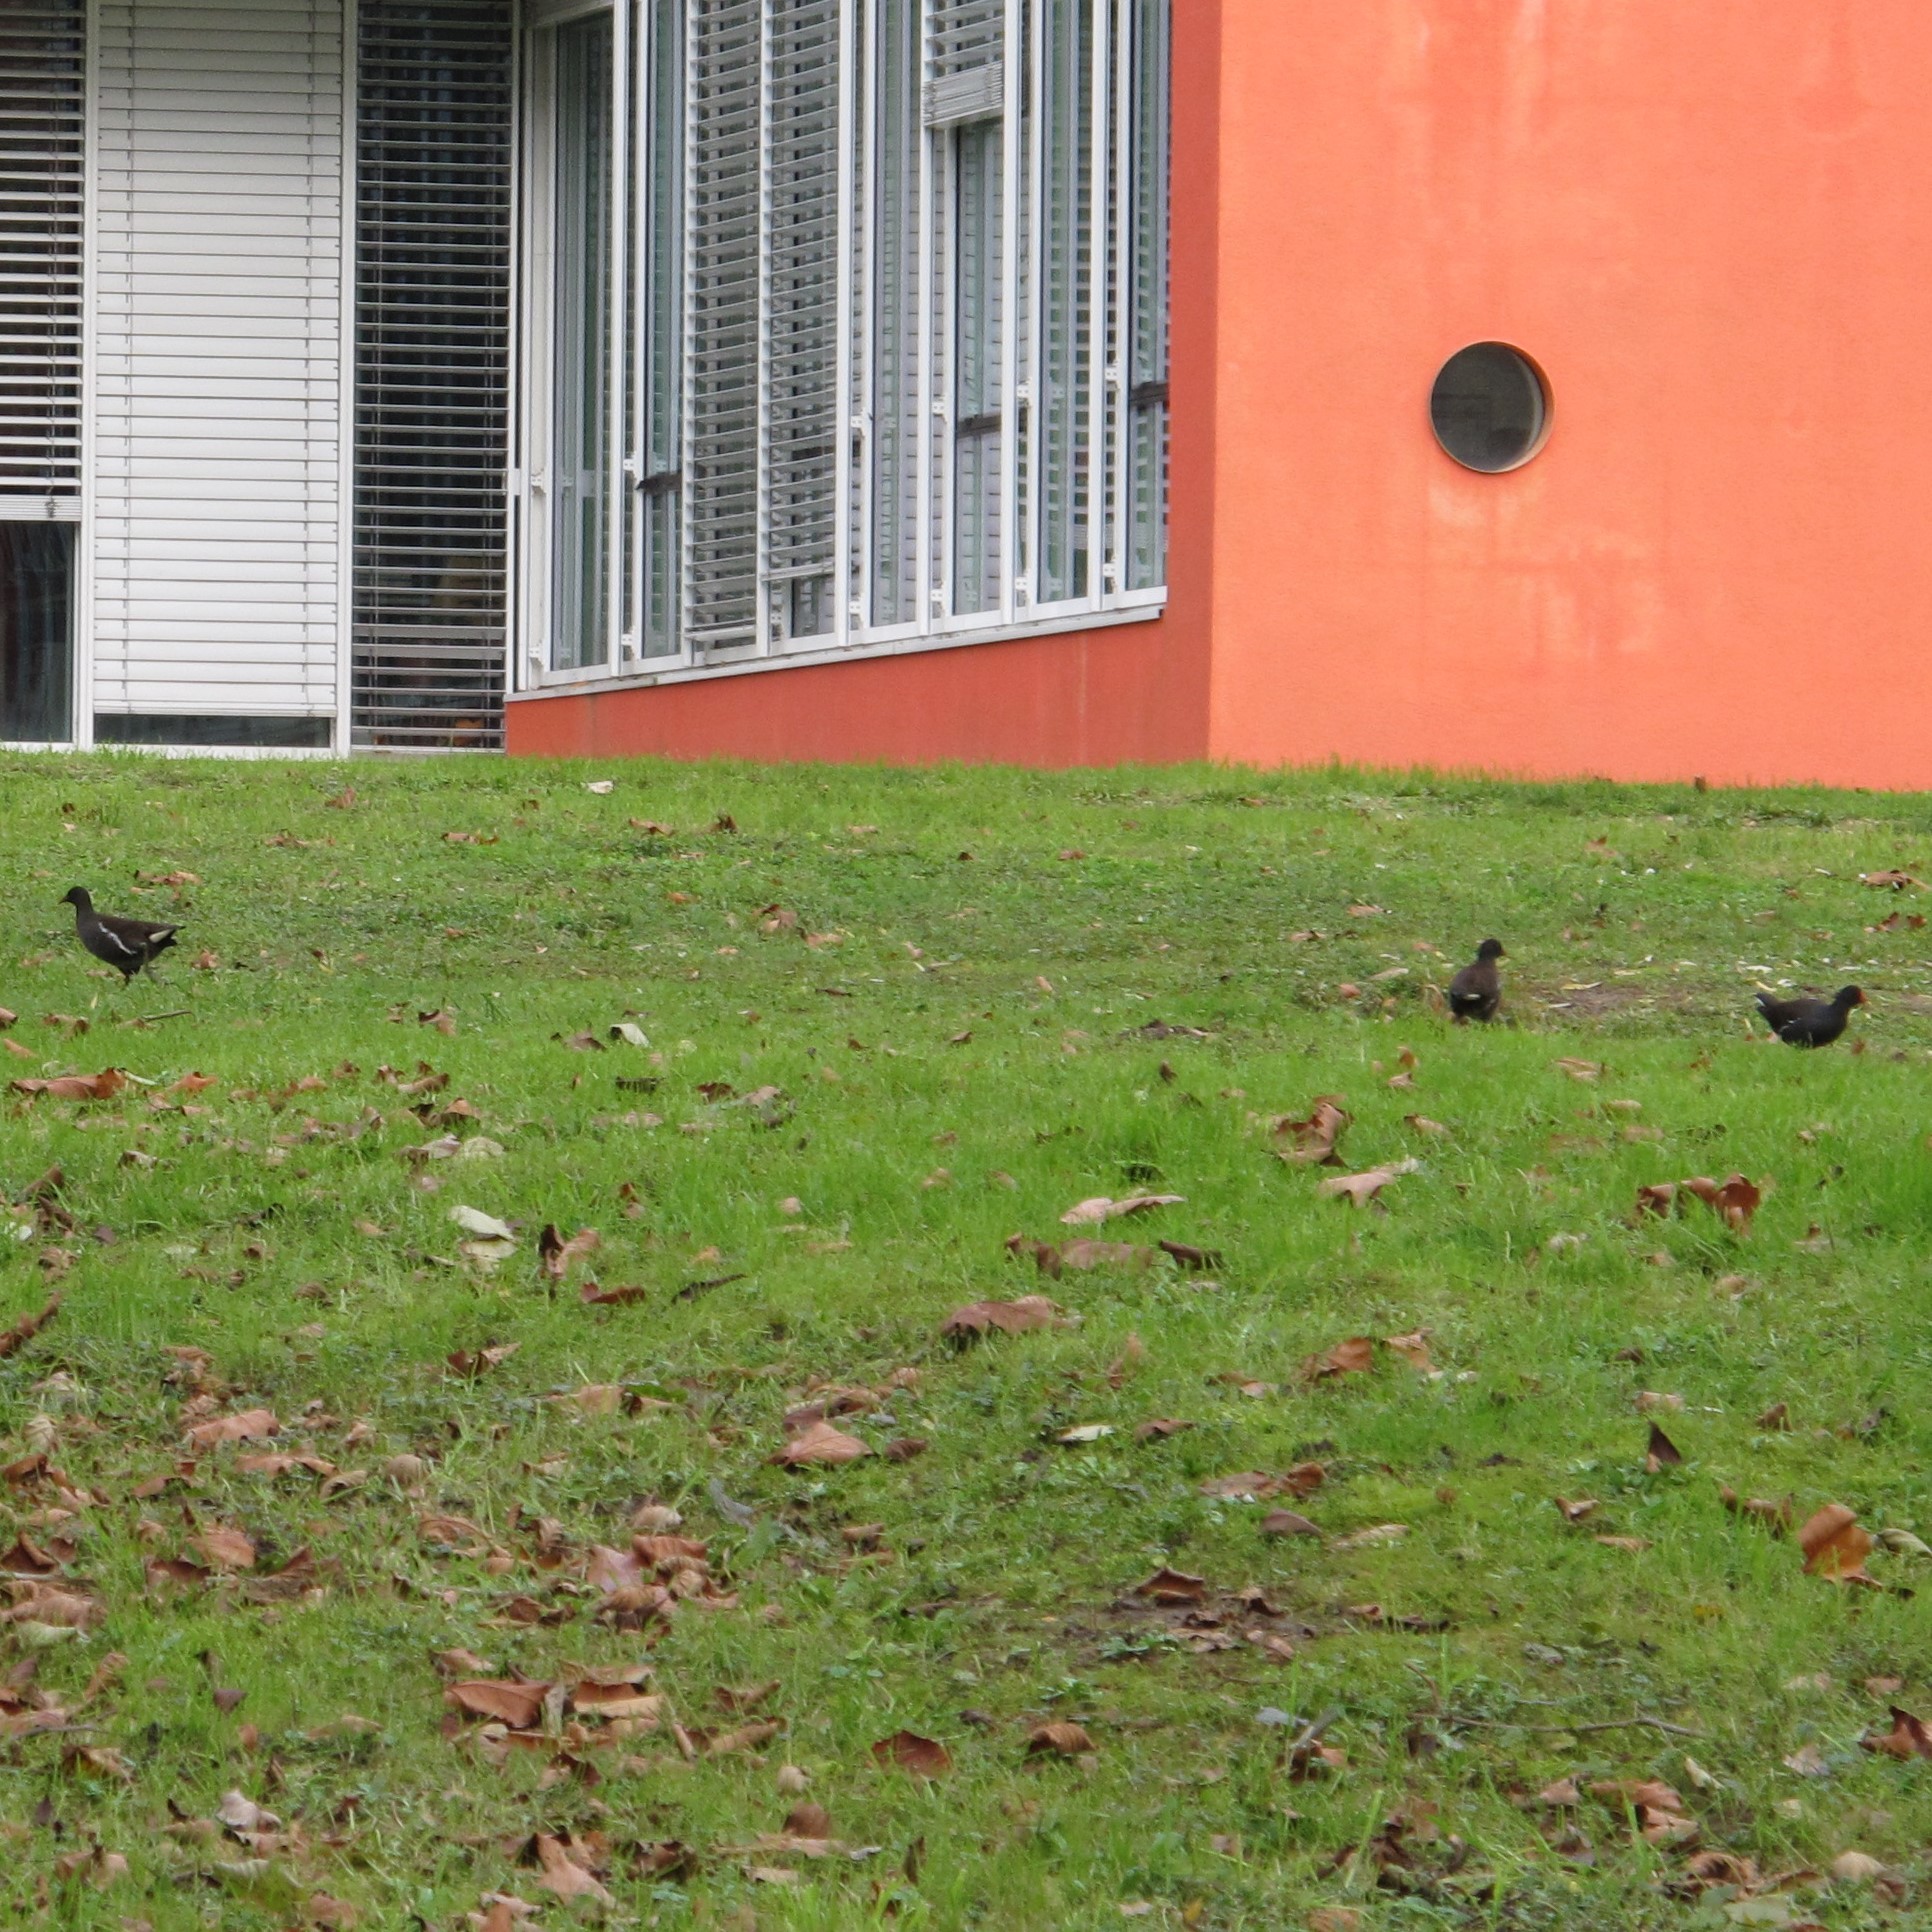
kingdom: Animalia
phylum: Chordata
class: Aves
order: Gruiformes
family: Rallidae
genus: Gallinula
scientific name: Gallinula chloropus
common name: Common moorhen
